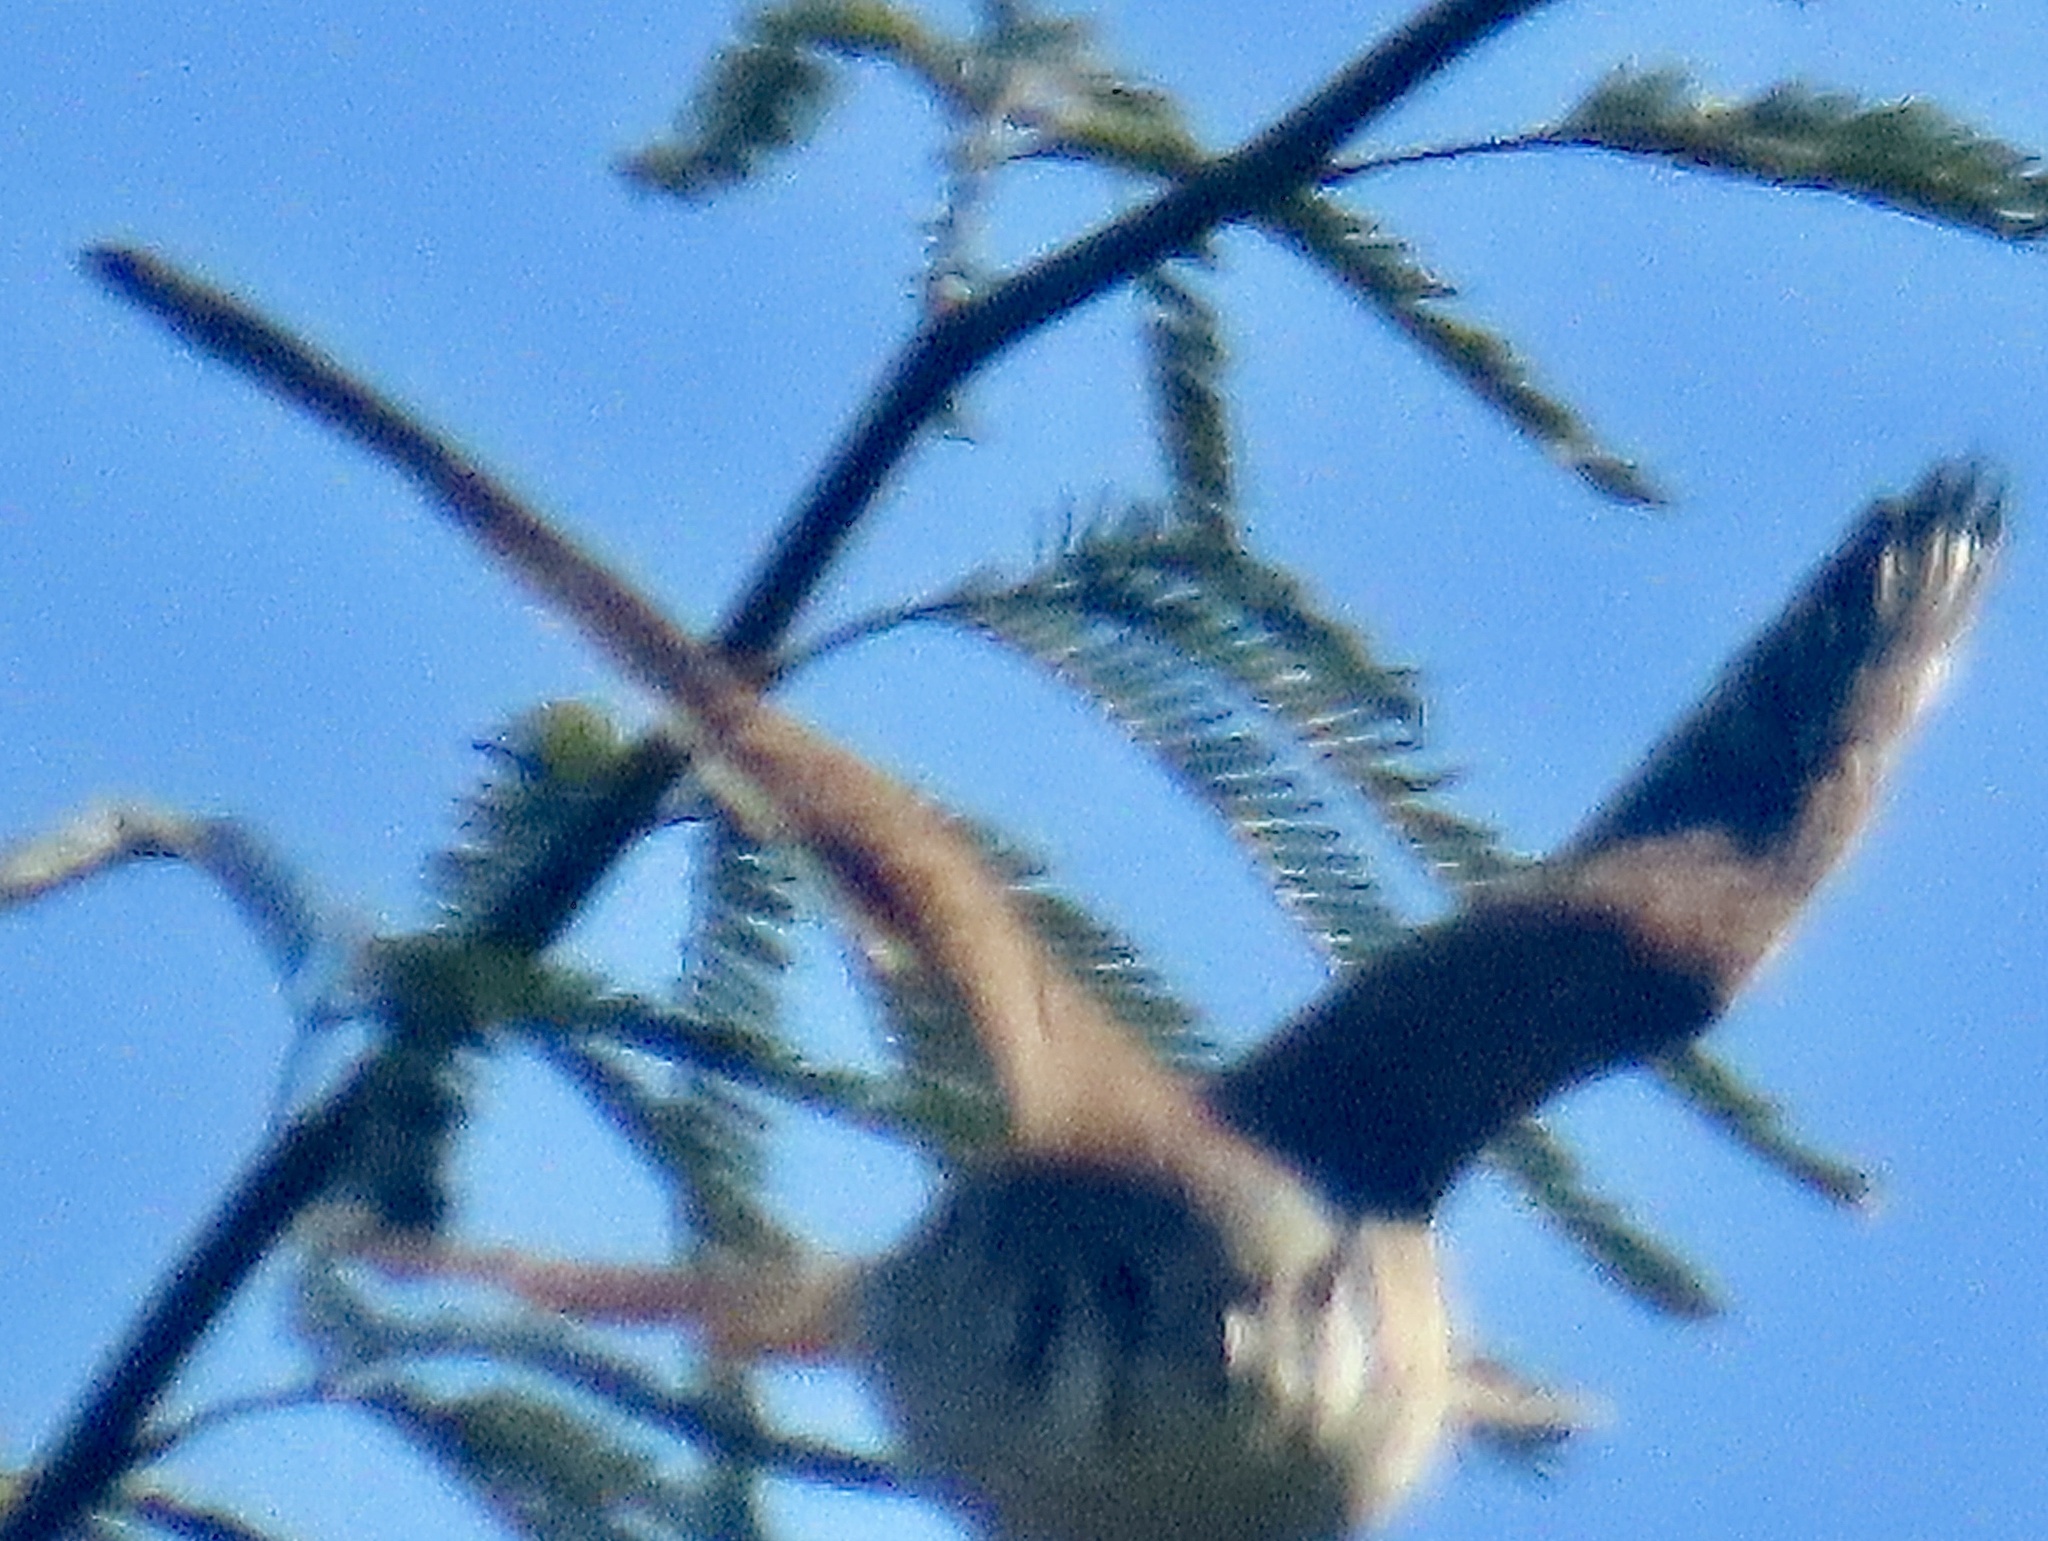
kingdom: Animalia
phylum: Chordata
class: Aves
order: Falconiformes
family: Falconidae
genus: Falco
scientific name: Falco sparverius
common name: American kestrel
